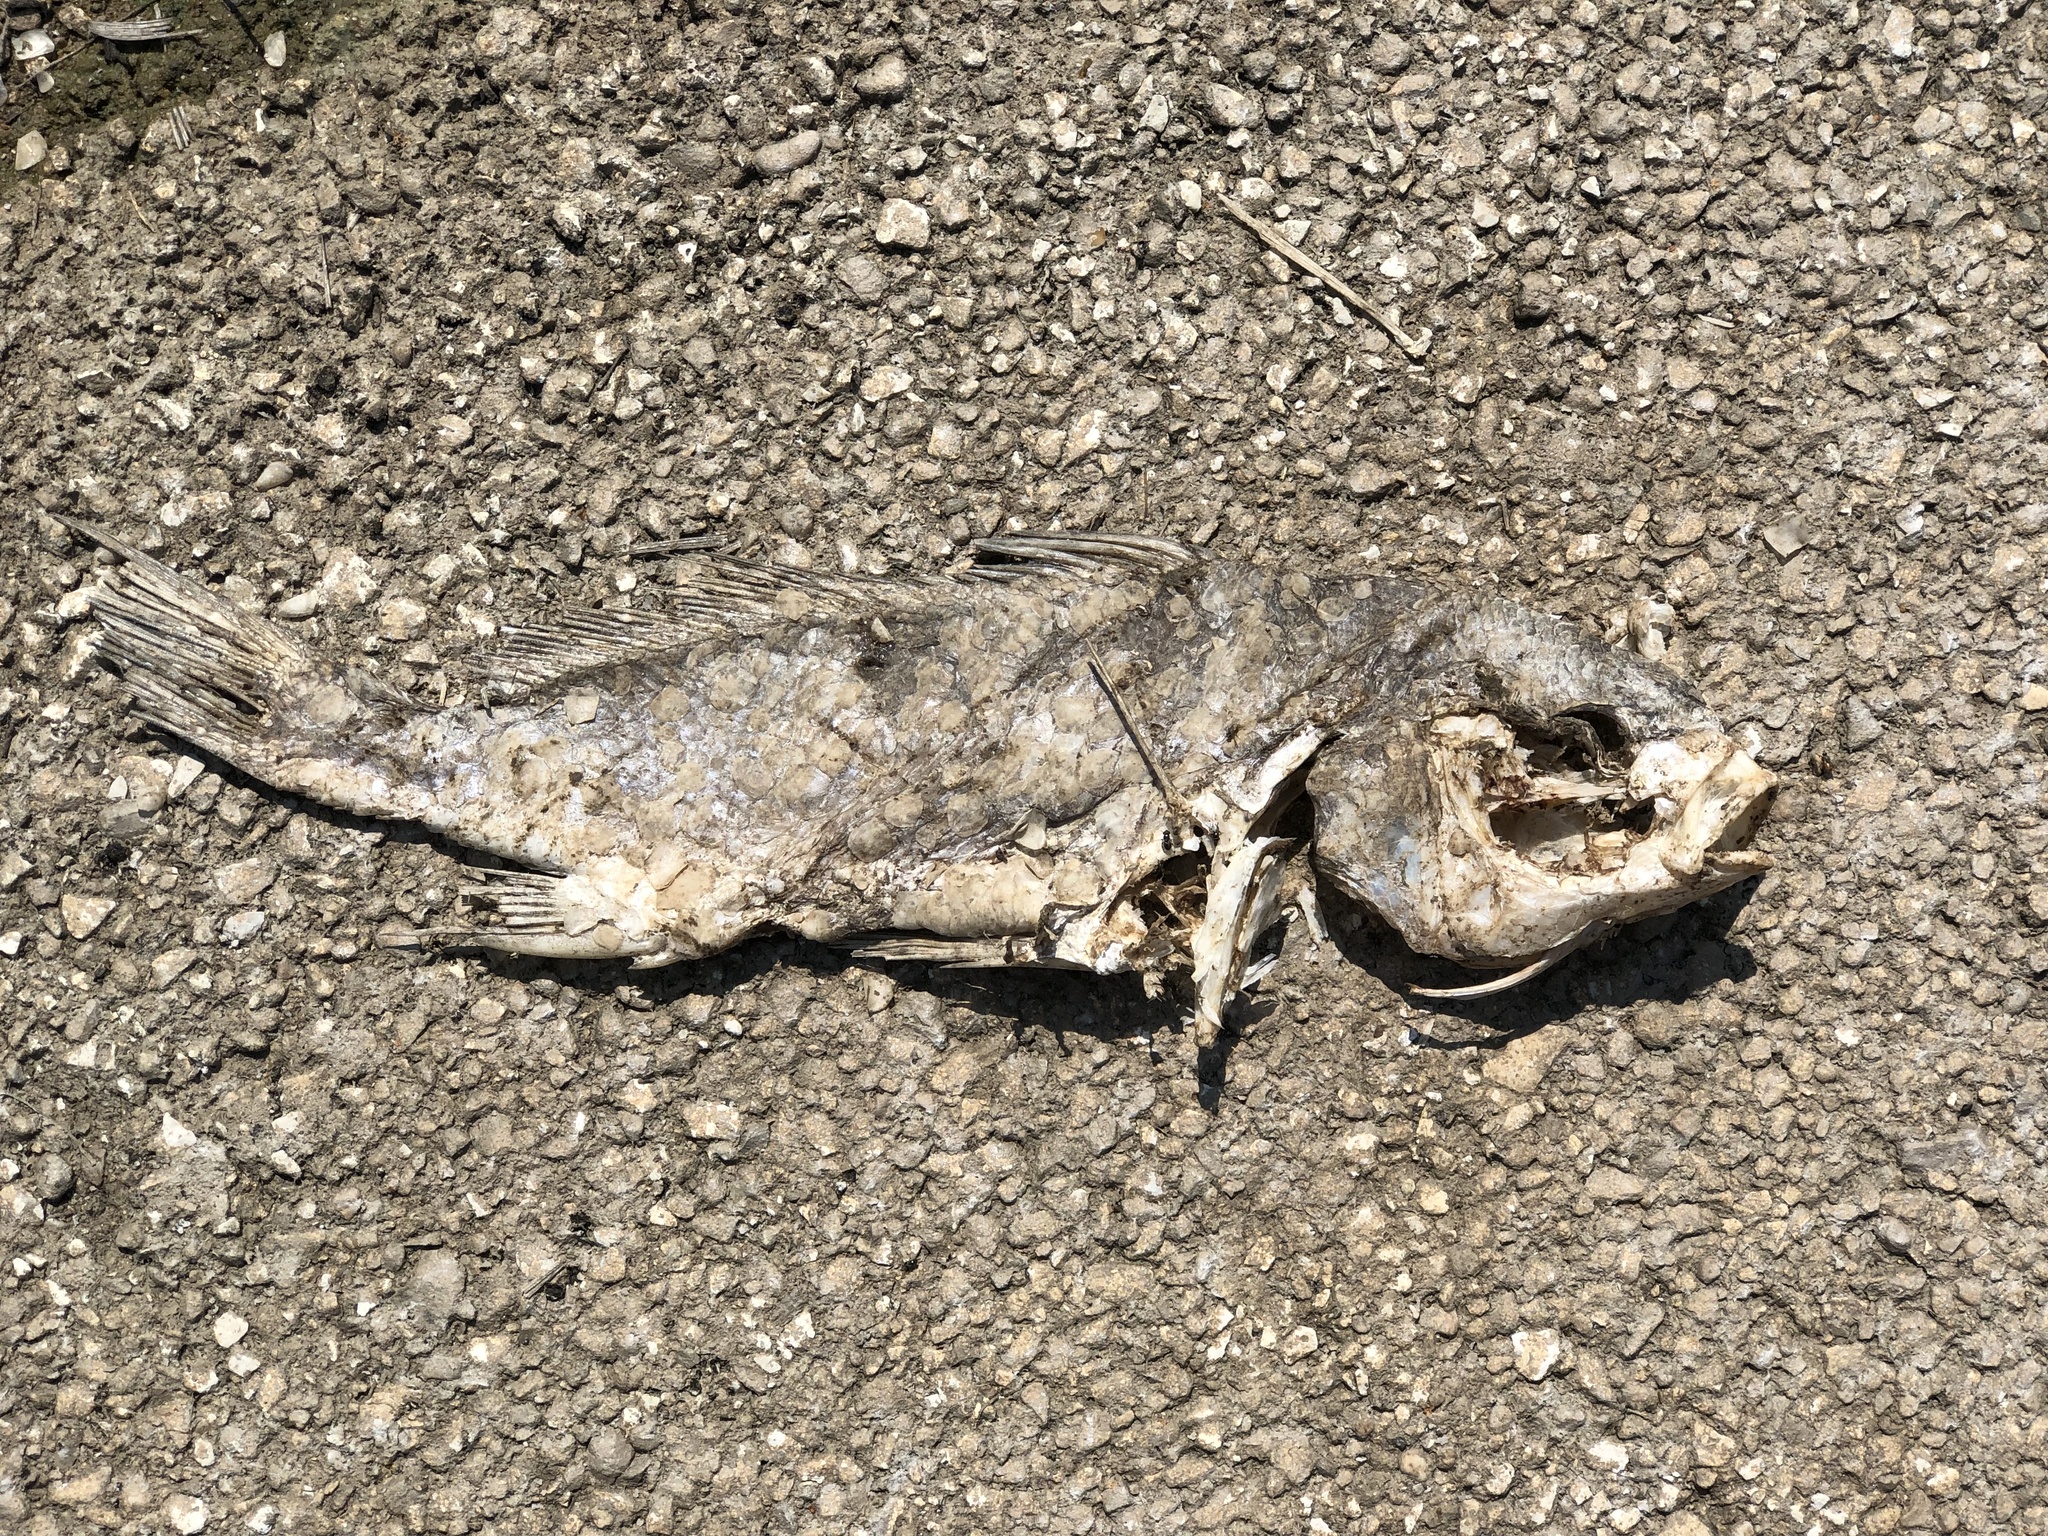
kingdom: Animalia
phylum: Chordata
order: Perciformes
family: Sciaenidae
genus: Aplodinotus
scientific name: Aplodinotus grunniens
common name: Freshwater drum
